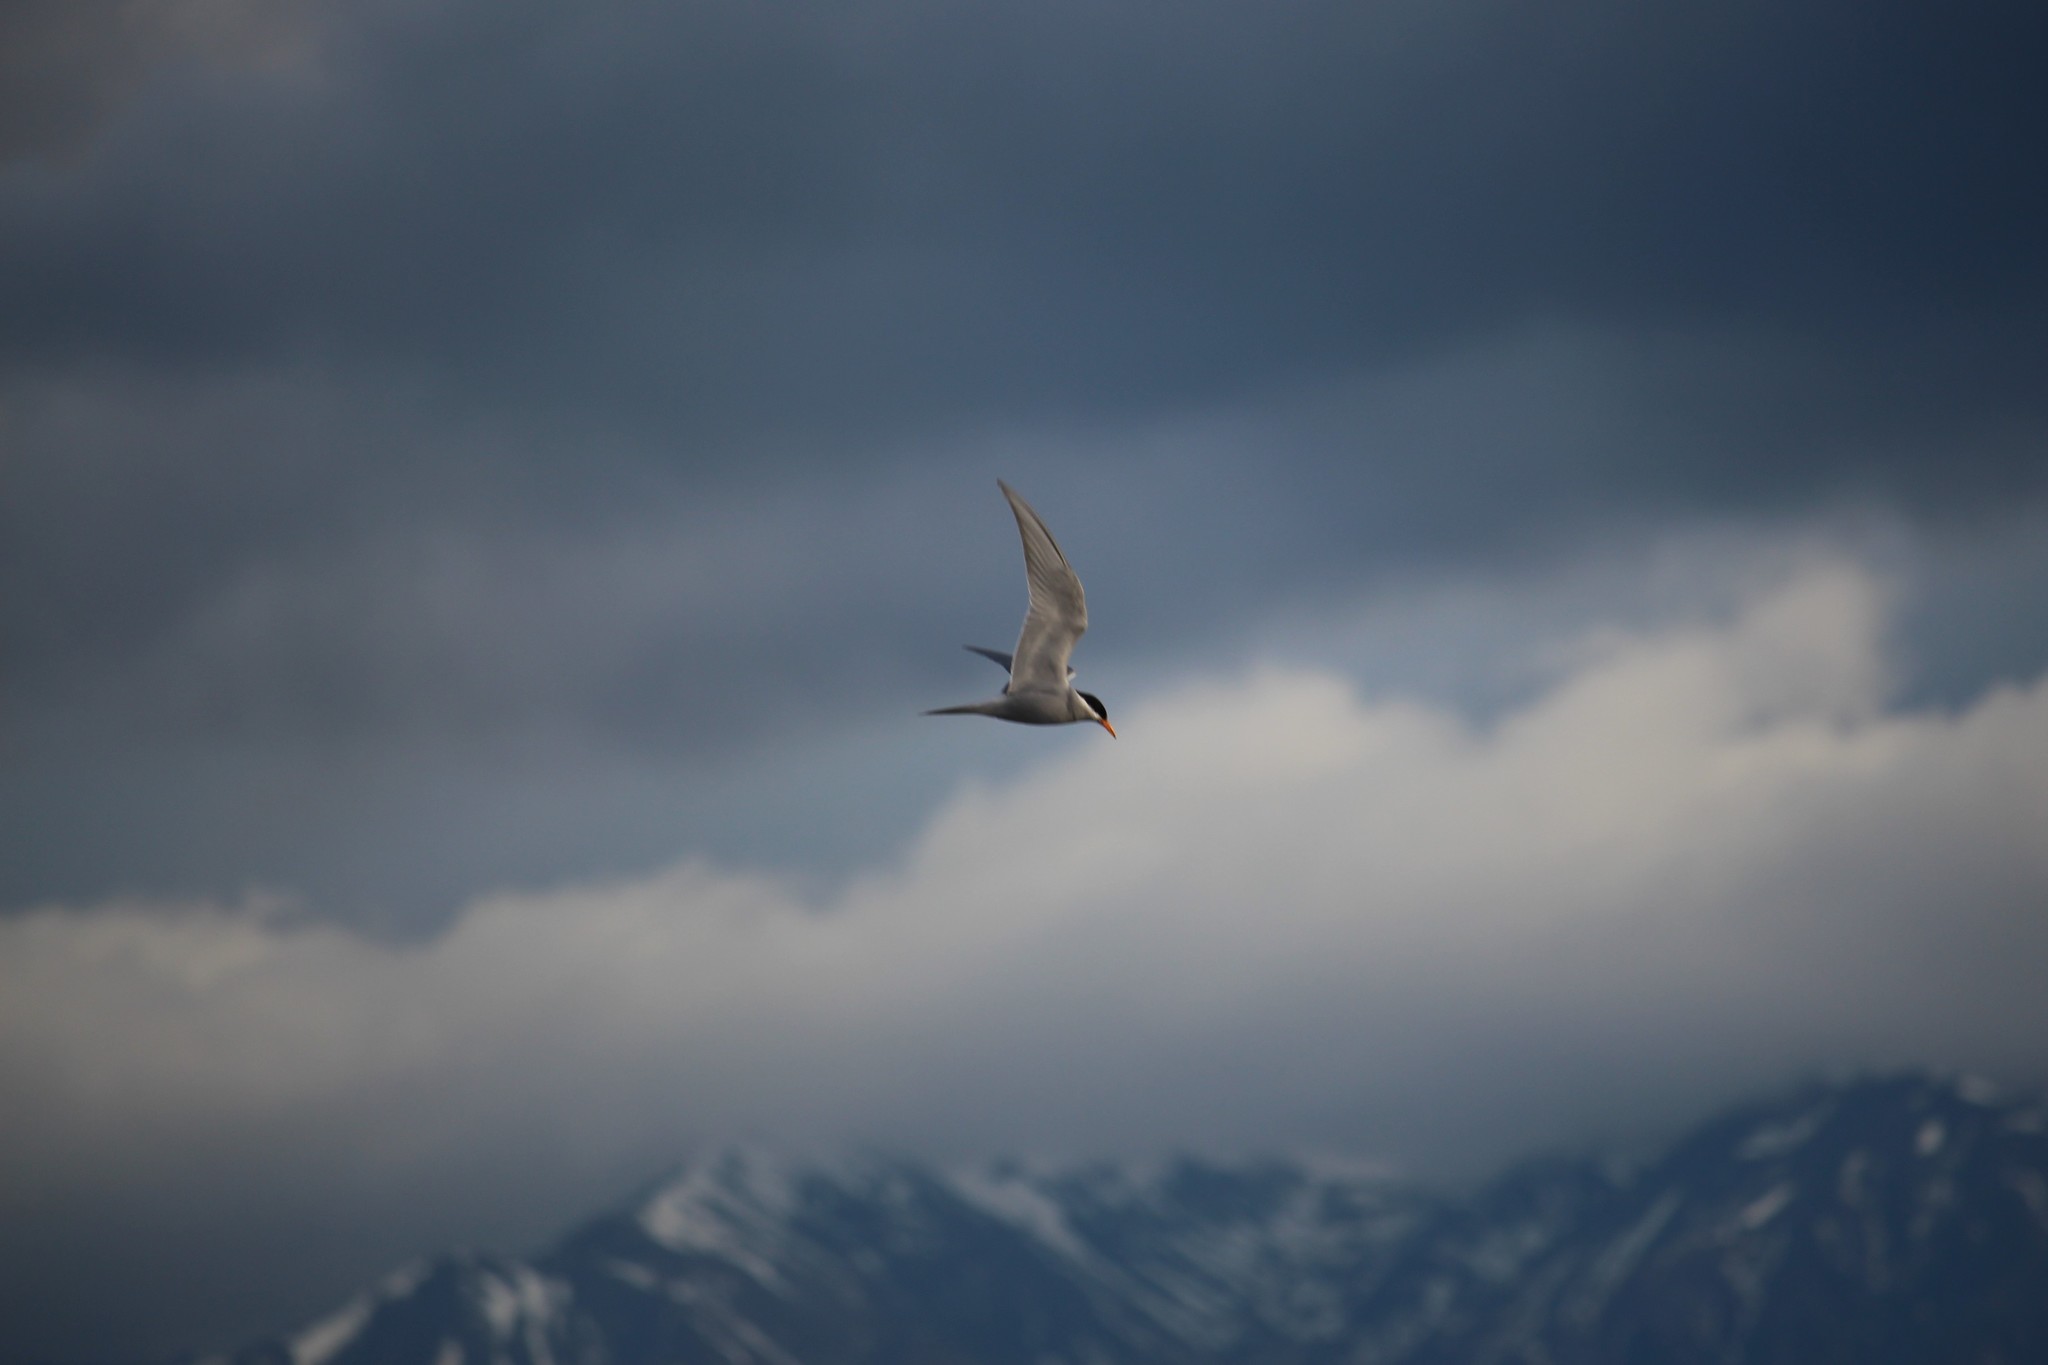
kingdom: Animalia
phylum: Chordata
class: Aves
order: Charadriiformes
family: Laridae
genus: Chlidonias
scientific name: Chlidonias albostriatus
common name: Black-fronted tern
